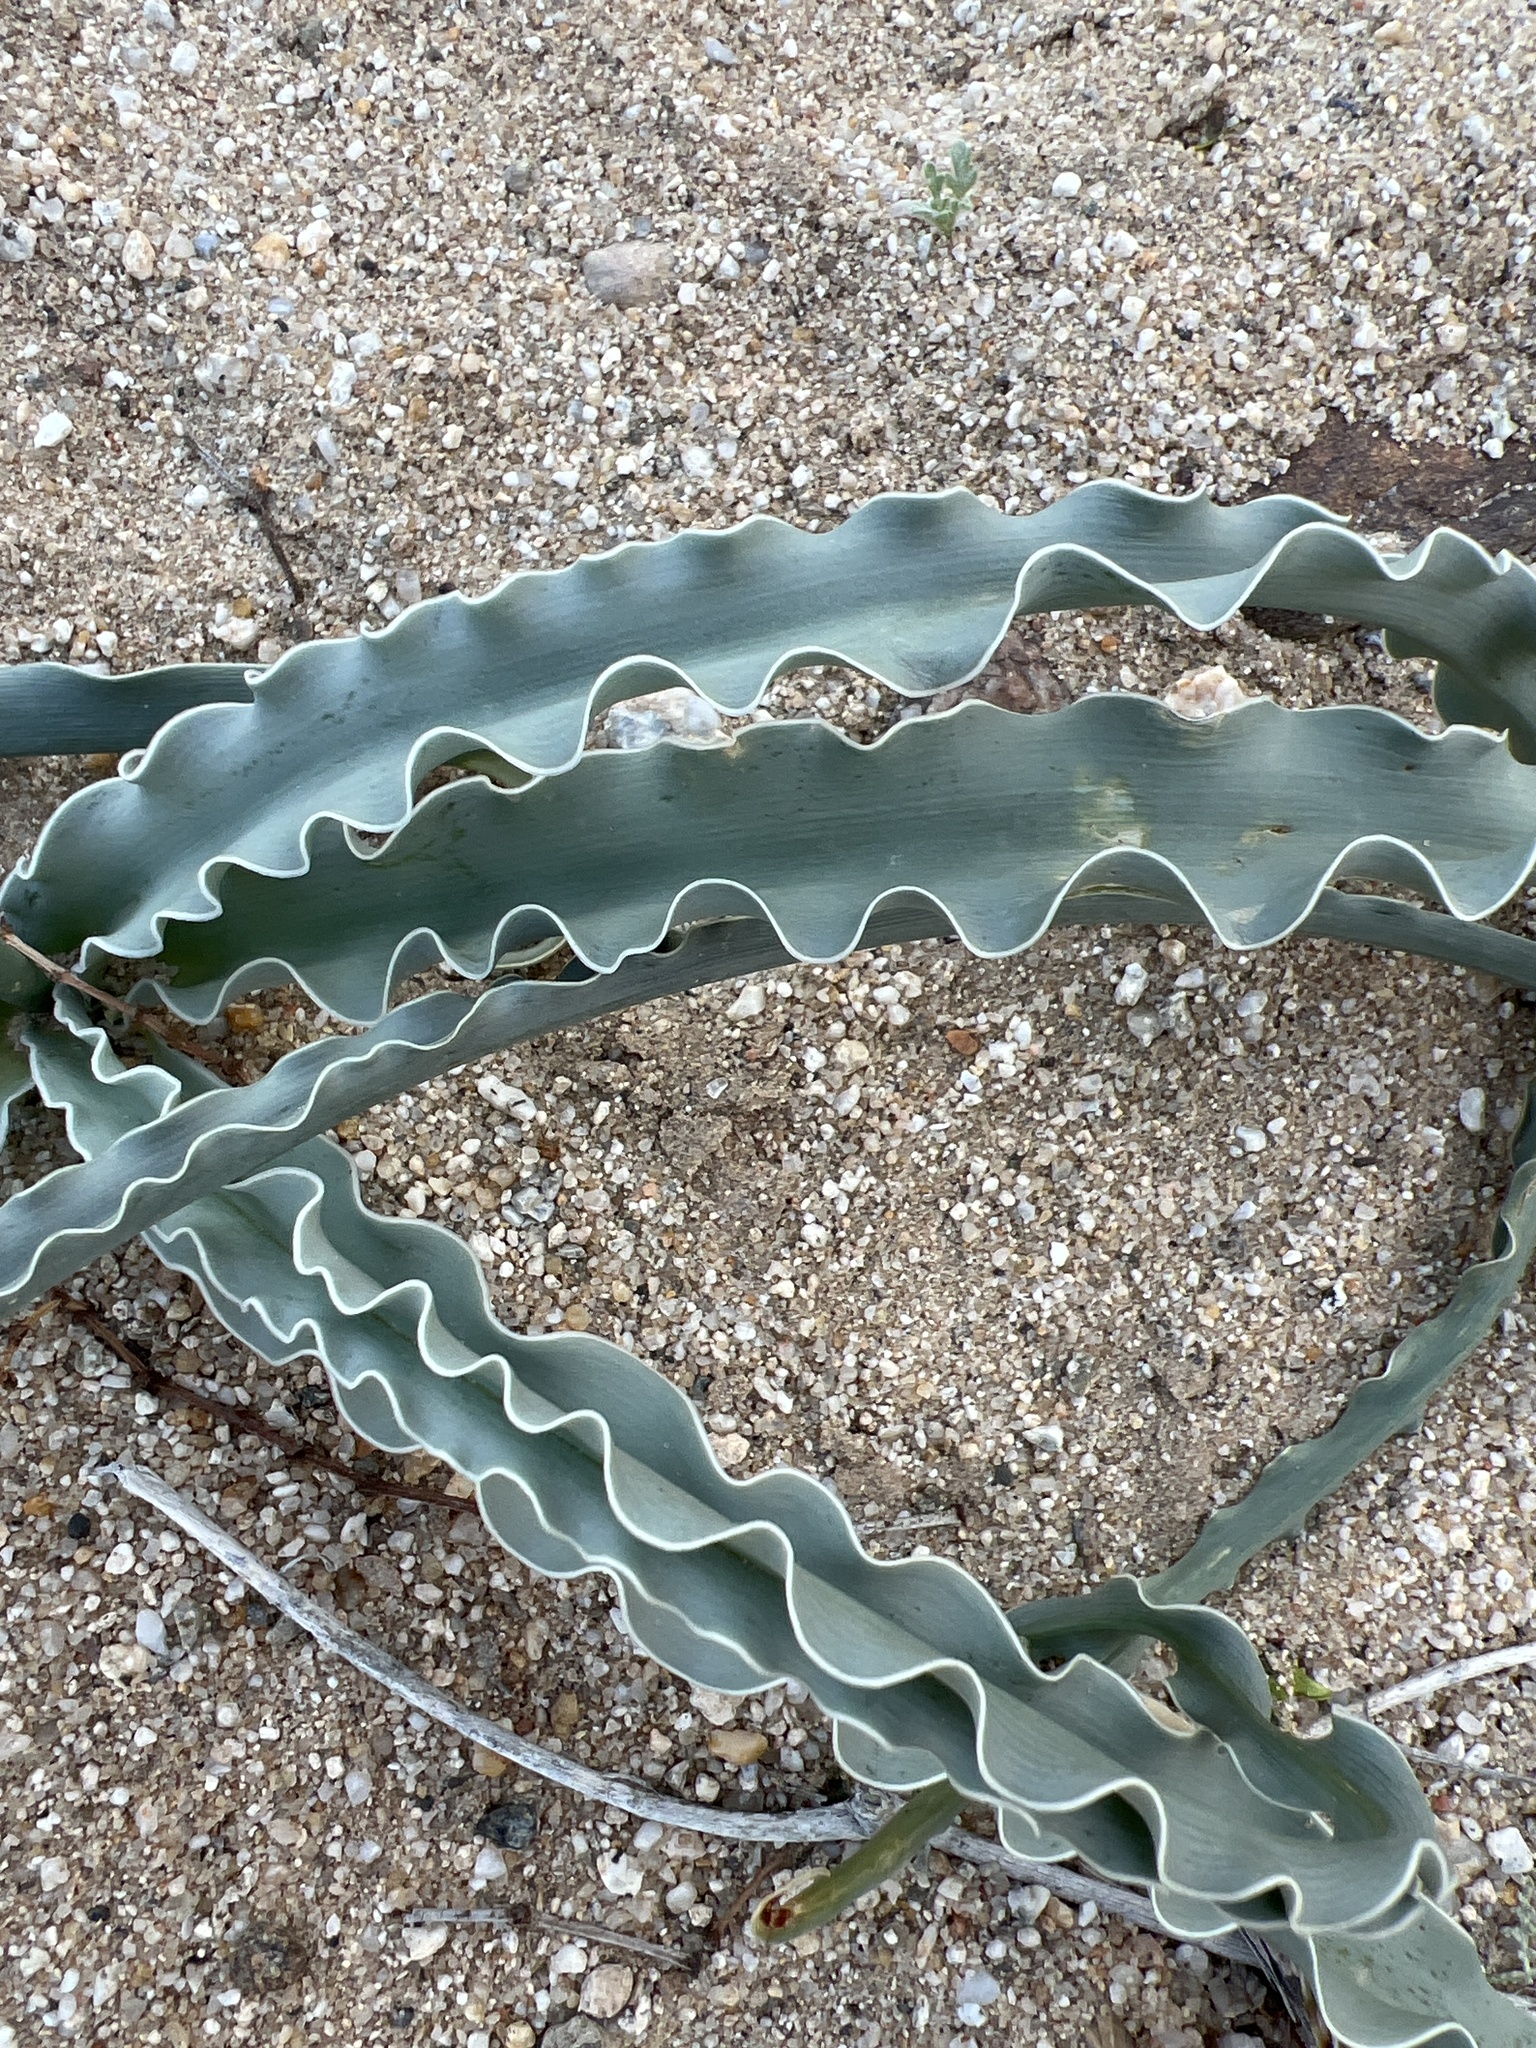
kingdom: Plantae
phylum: Tracheophyta
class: Liliopsida
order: Asparagales
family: Asparagaceae
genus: Hesperocallis
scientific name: Hesperocallis undulata
